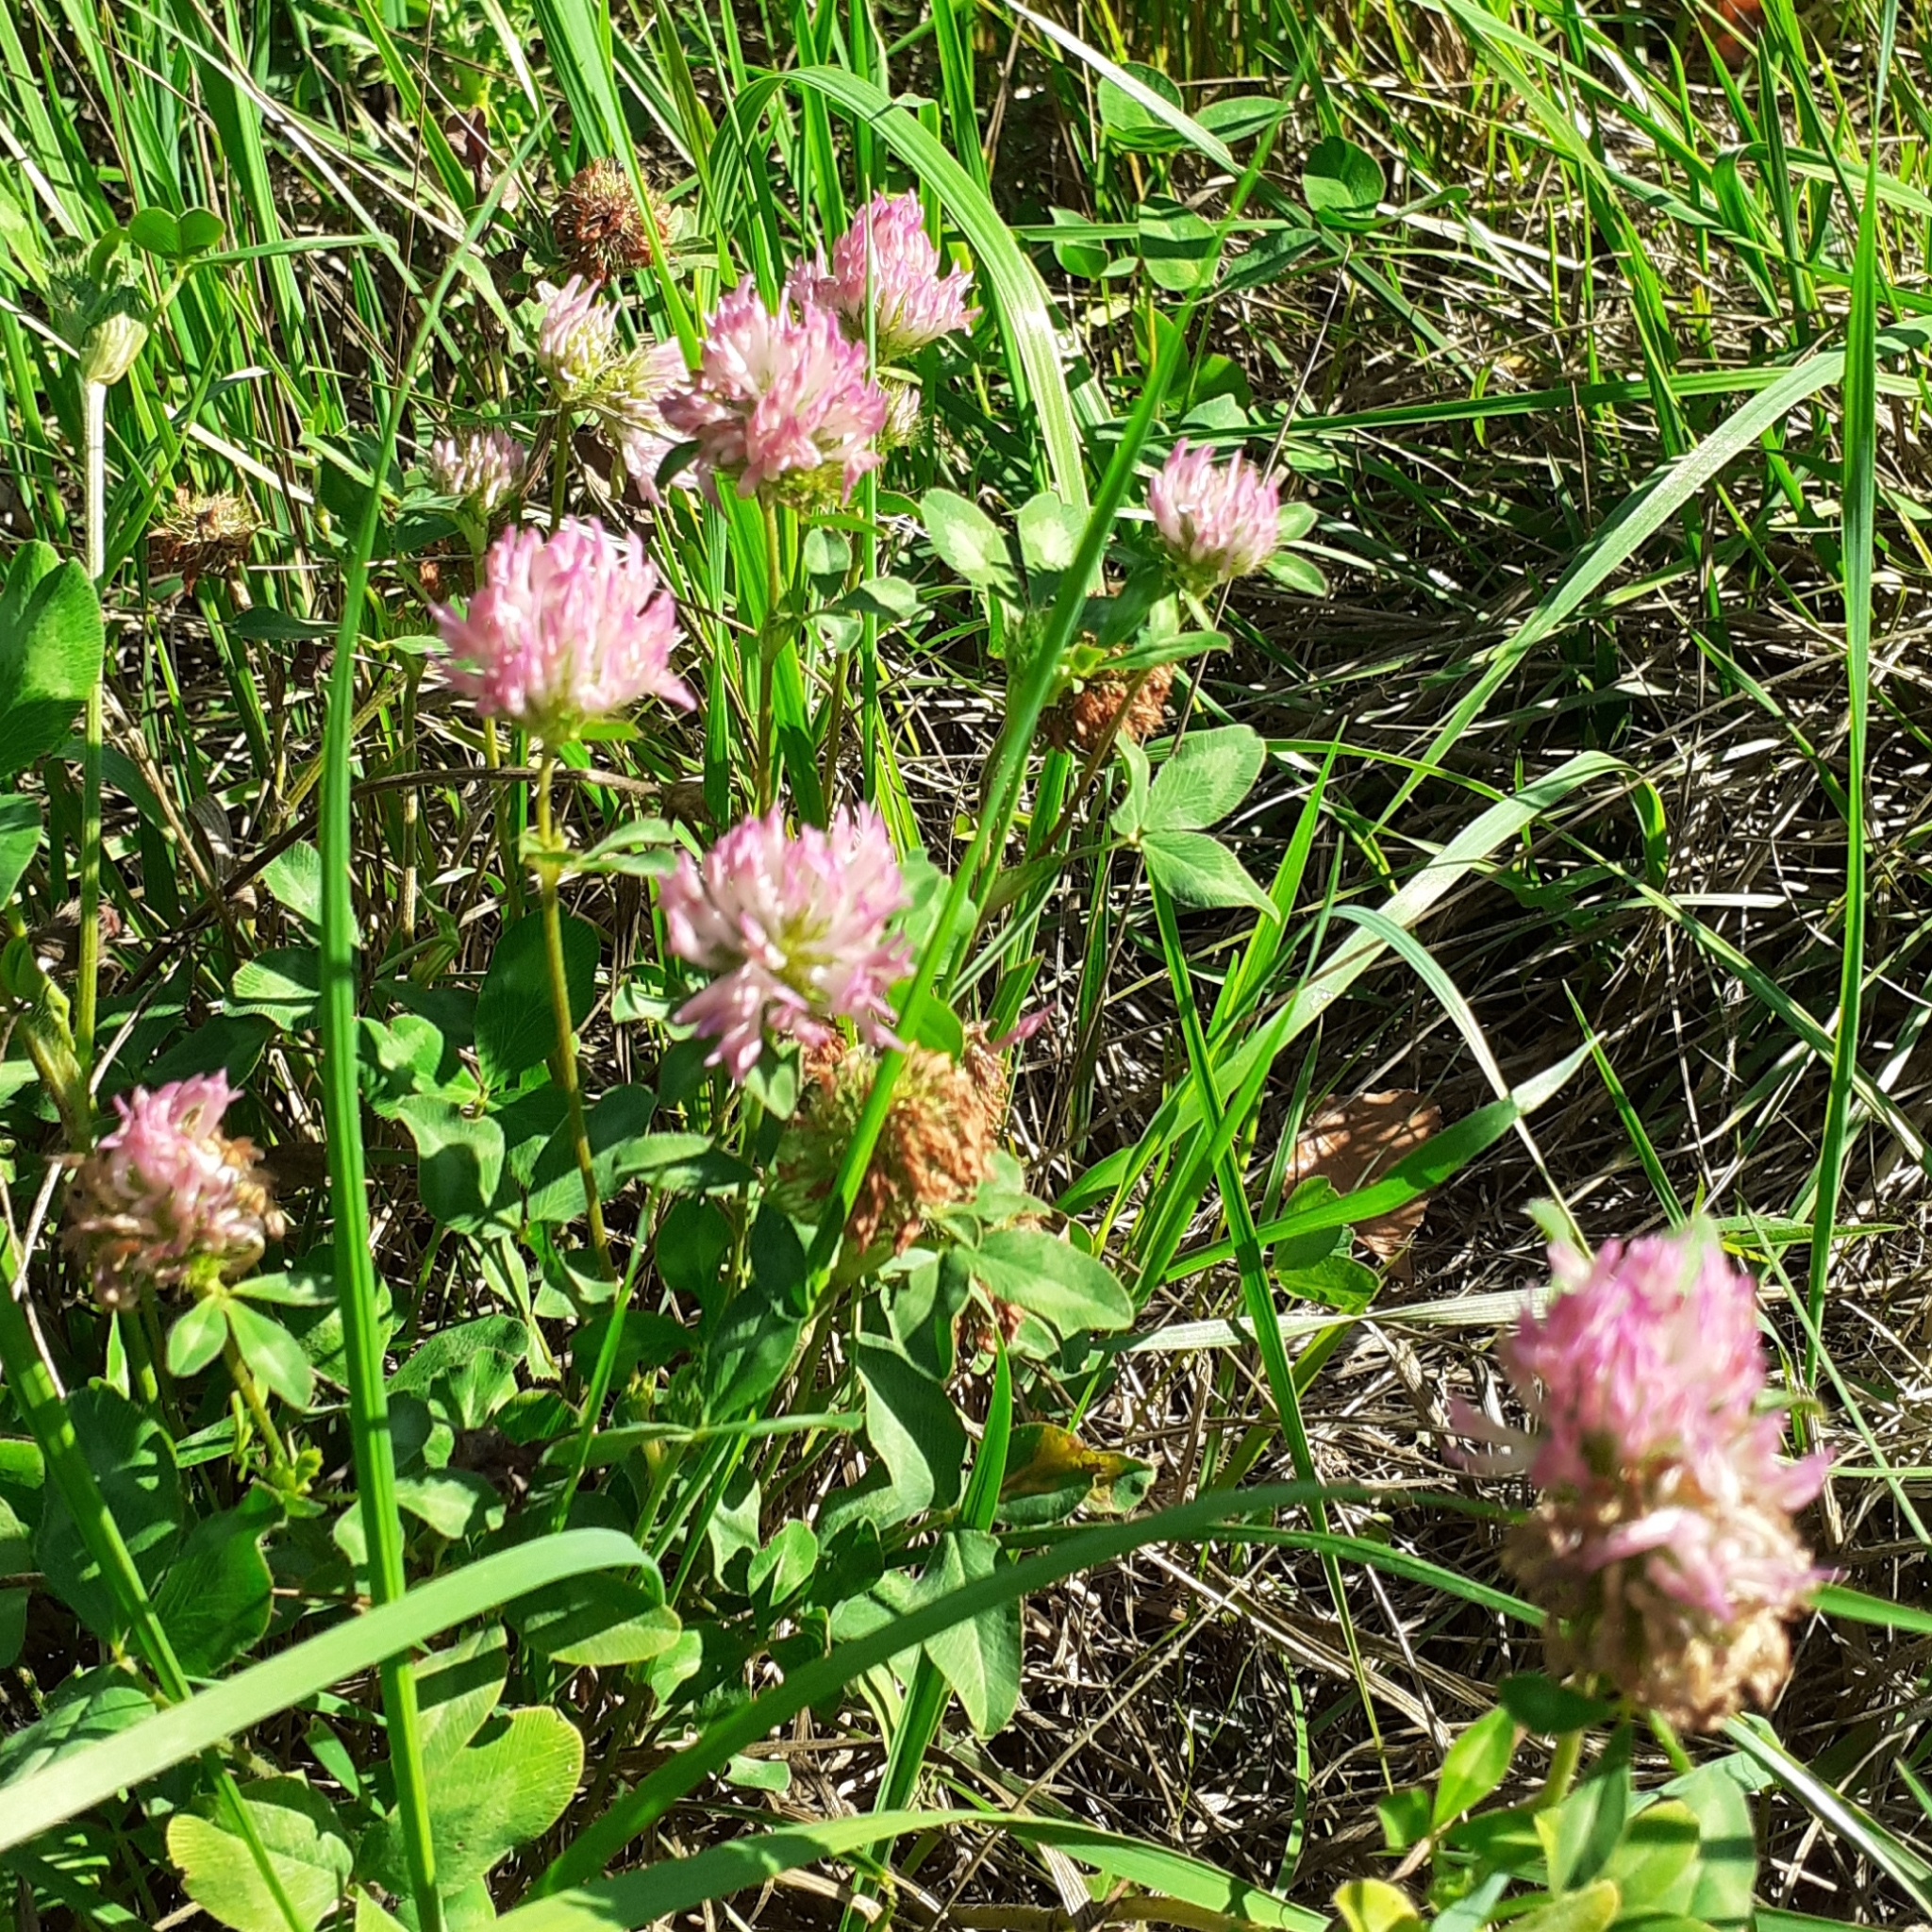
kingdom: Plantae
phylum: Tracheophyta
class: Magnoliopsida
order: Fabales
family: Fabaceae
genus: Trifolium
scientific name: Trifolium pratense
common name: Red clover
